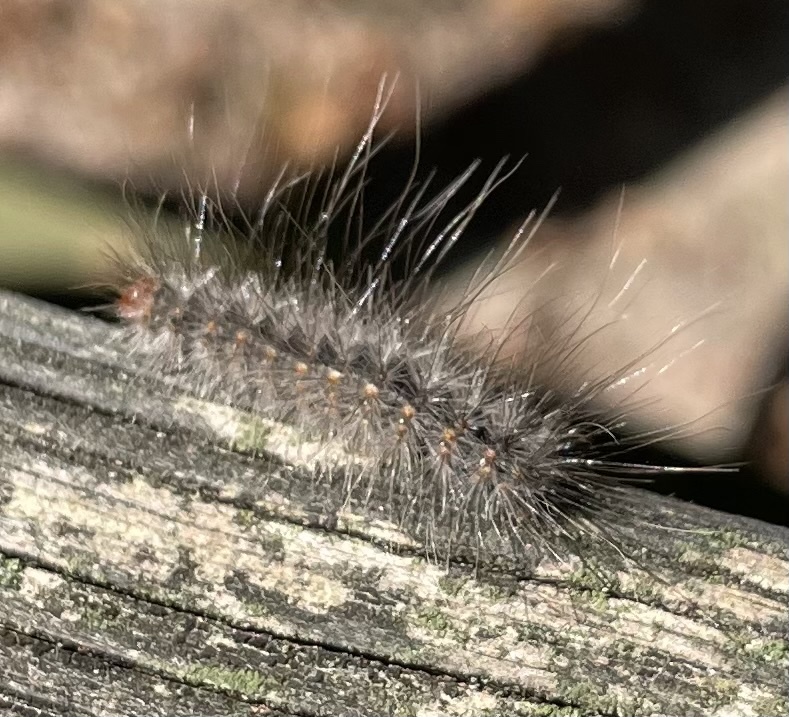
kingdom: Animalia
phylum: Arthropoda
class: Insecta
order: Lepidoptera
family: Erebidae
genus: Hyphantria
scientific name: Hyphantria cunea
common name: American white moth
